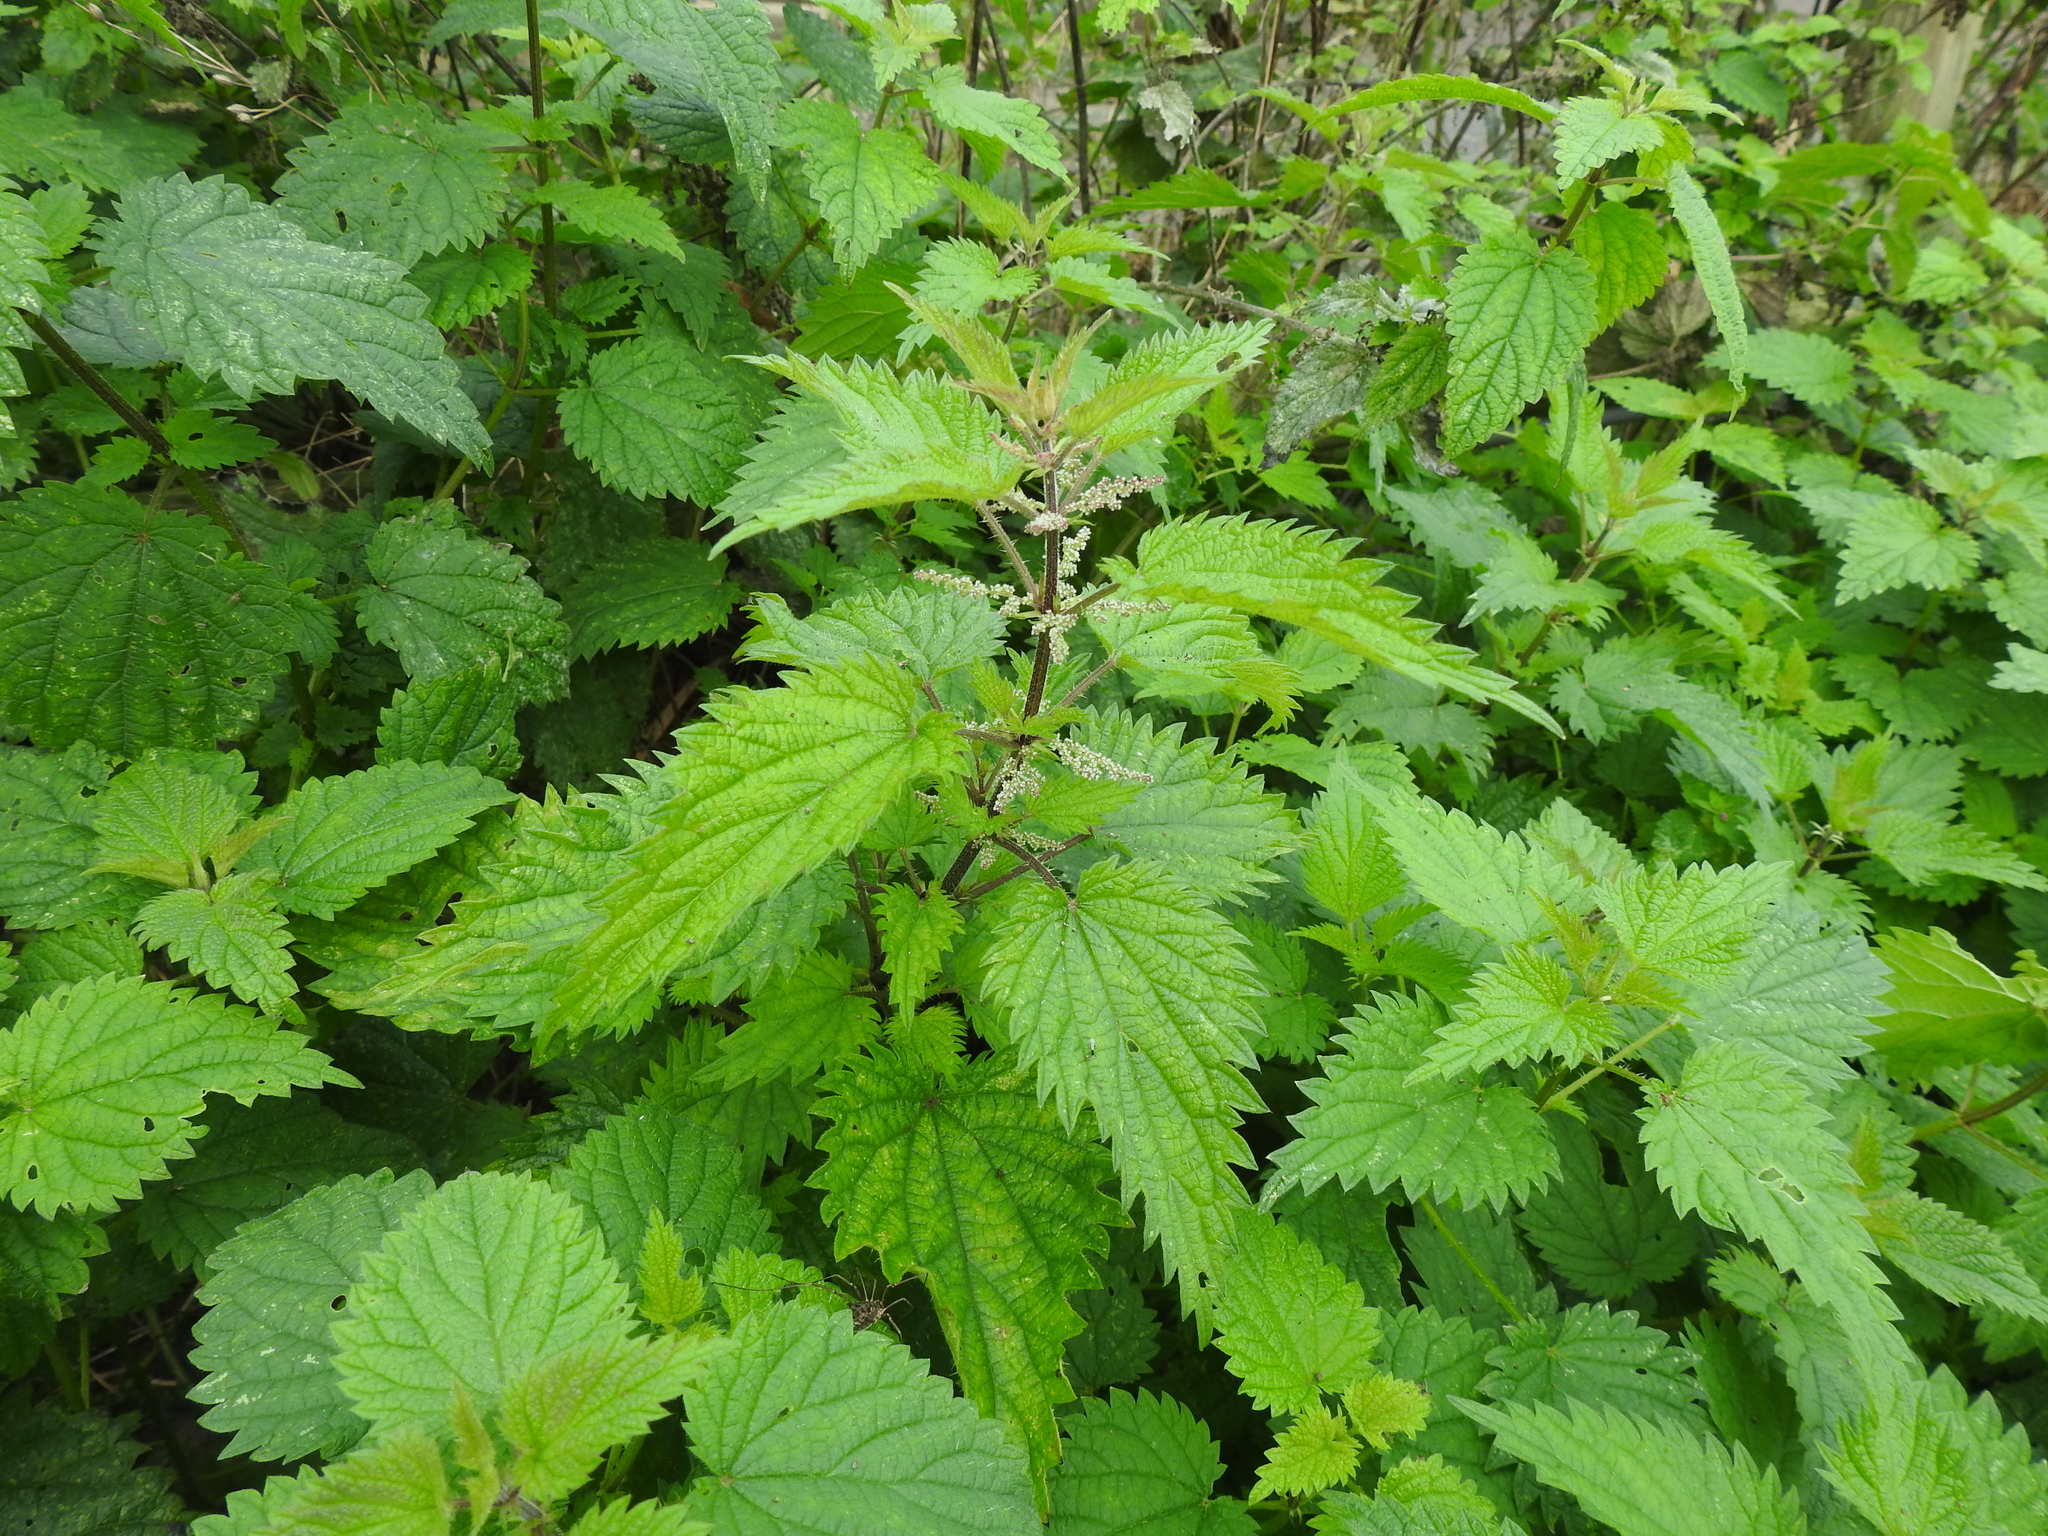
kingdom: Plantae
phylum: Tracheophyta
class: Magnoliopsida
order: Rosales
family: Urticaceae
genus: Urtica
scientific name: Urtica dioica
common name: Common nettle
